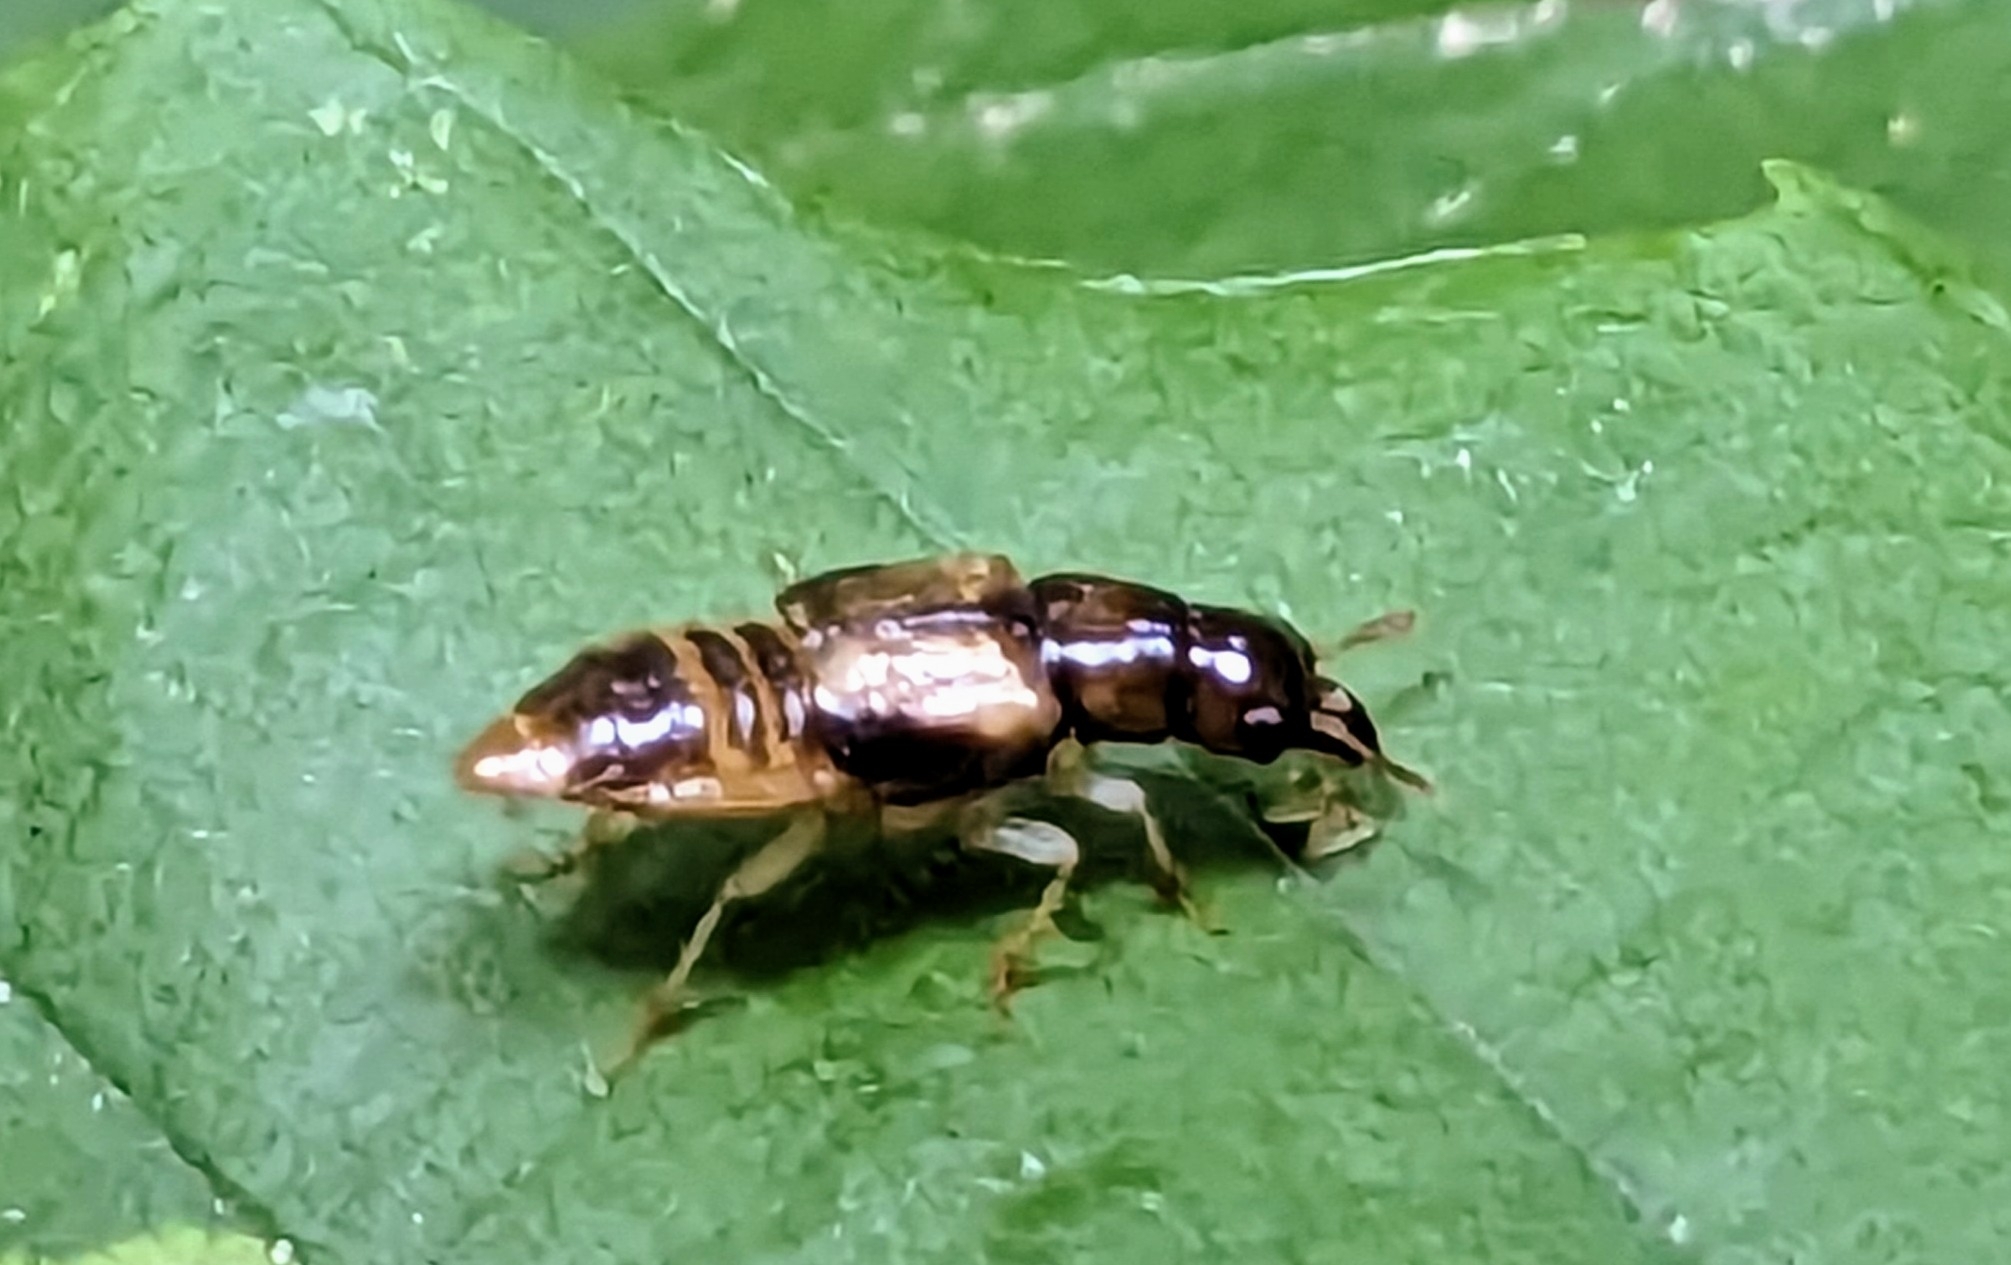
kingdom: Animalia
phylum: Arthropoda
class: Insecta
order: Coleoptera
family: Staphylinidae
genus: Oxyporus
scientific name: Oxyporus vittatus
